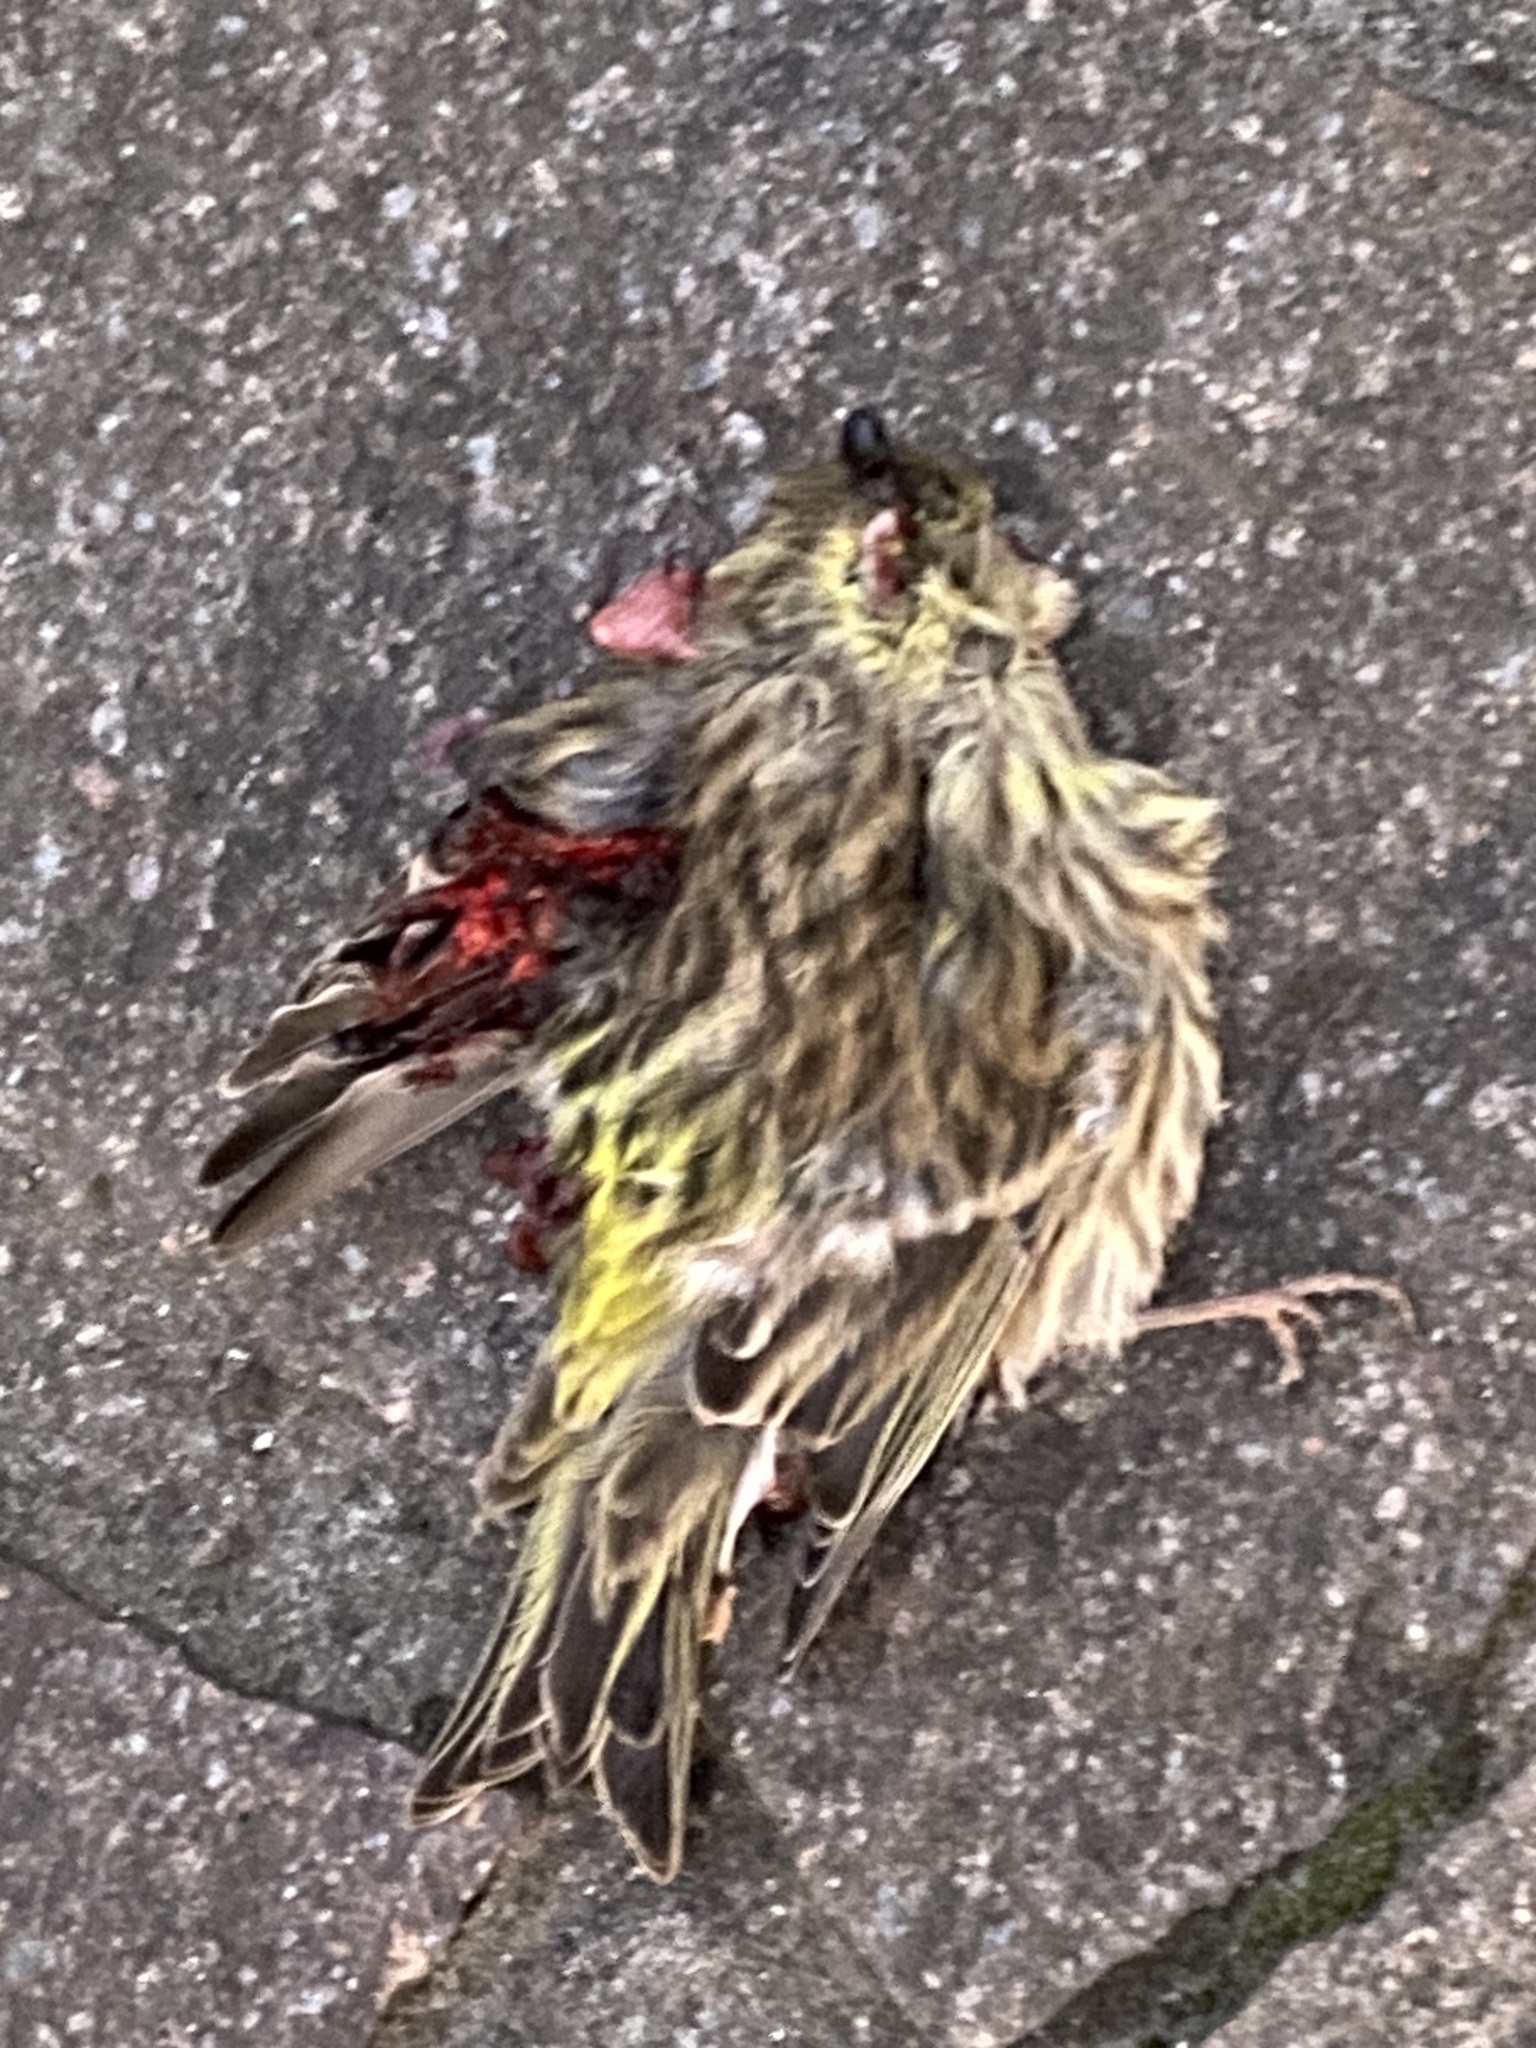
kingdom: Animalia
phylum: Chordata
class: Aves
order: Passeriformes
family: Fringillidae
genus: Serinus
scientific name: Serinus serinus
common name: European serin
